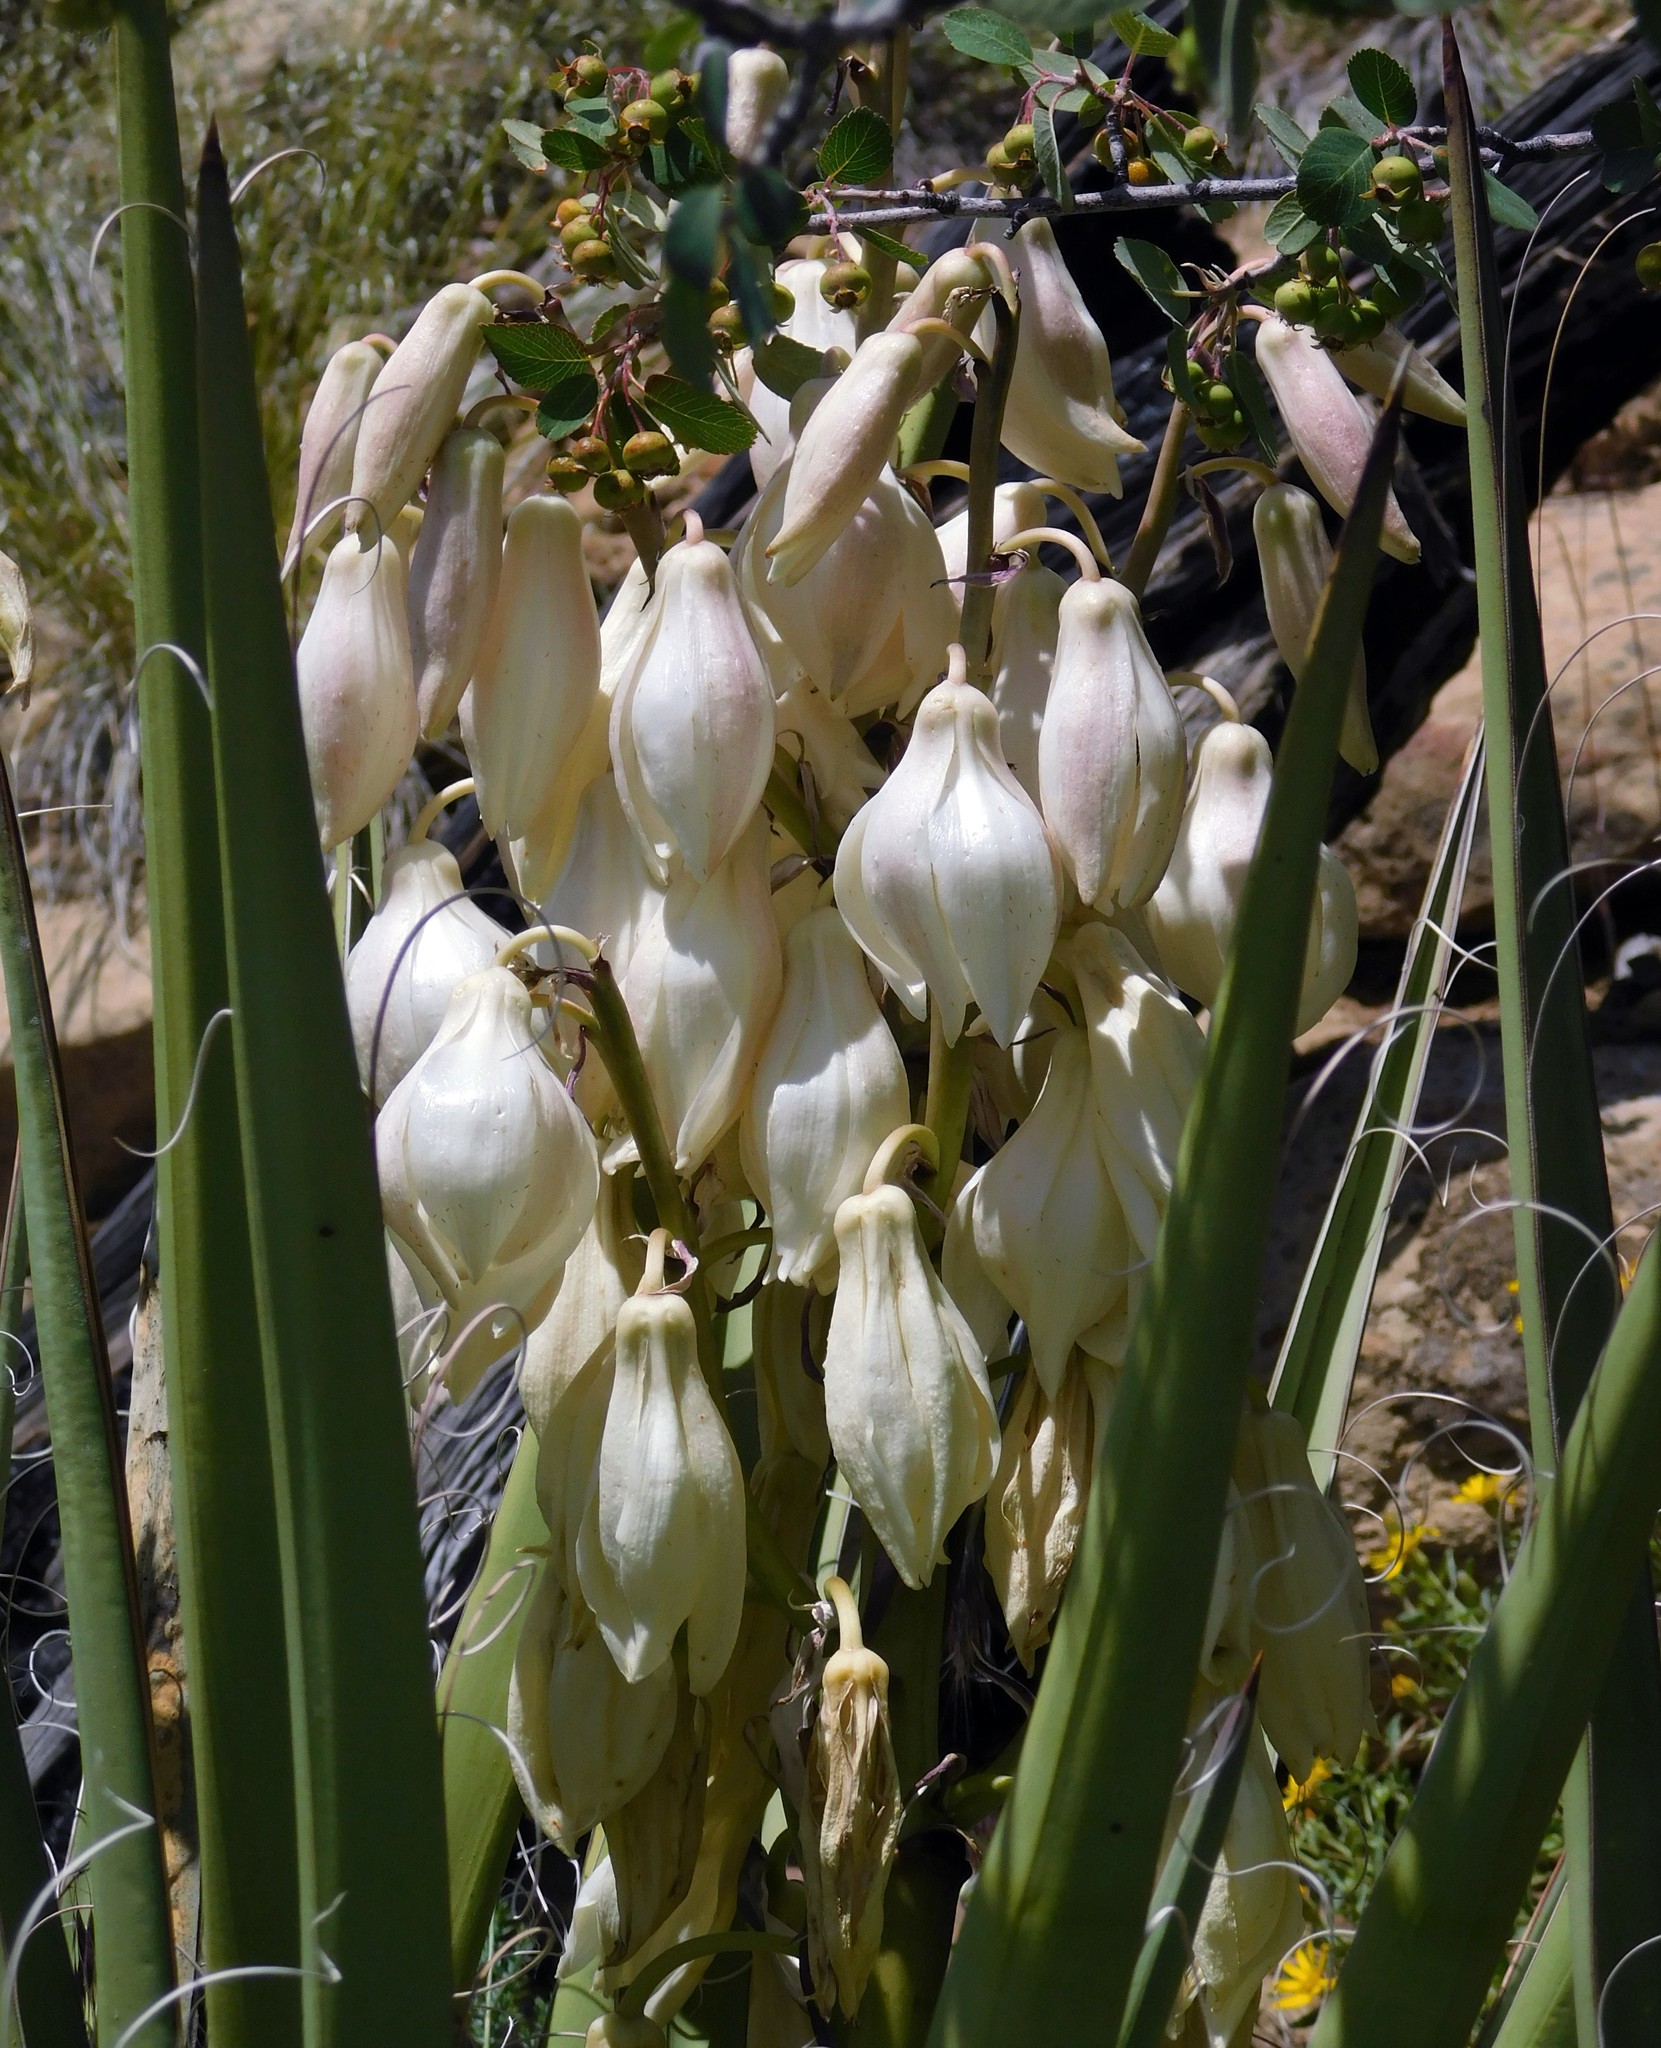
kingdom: Plantae
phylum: Tracheophyta
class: Liliopsida
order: Asparagales
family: Asparagaceae
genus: Yucca
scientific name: Yucca baccata
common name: Banana yucca
